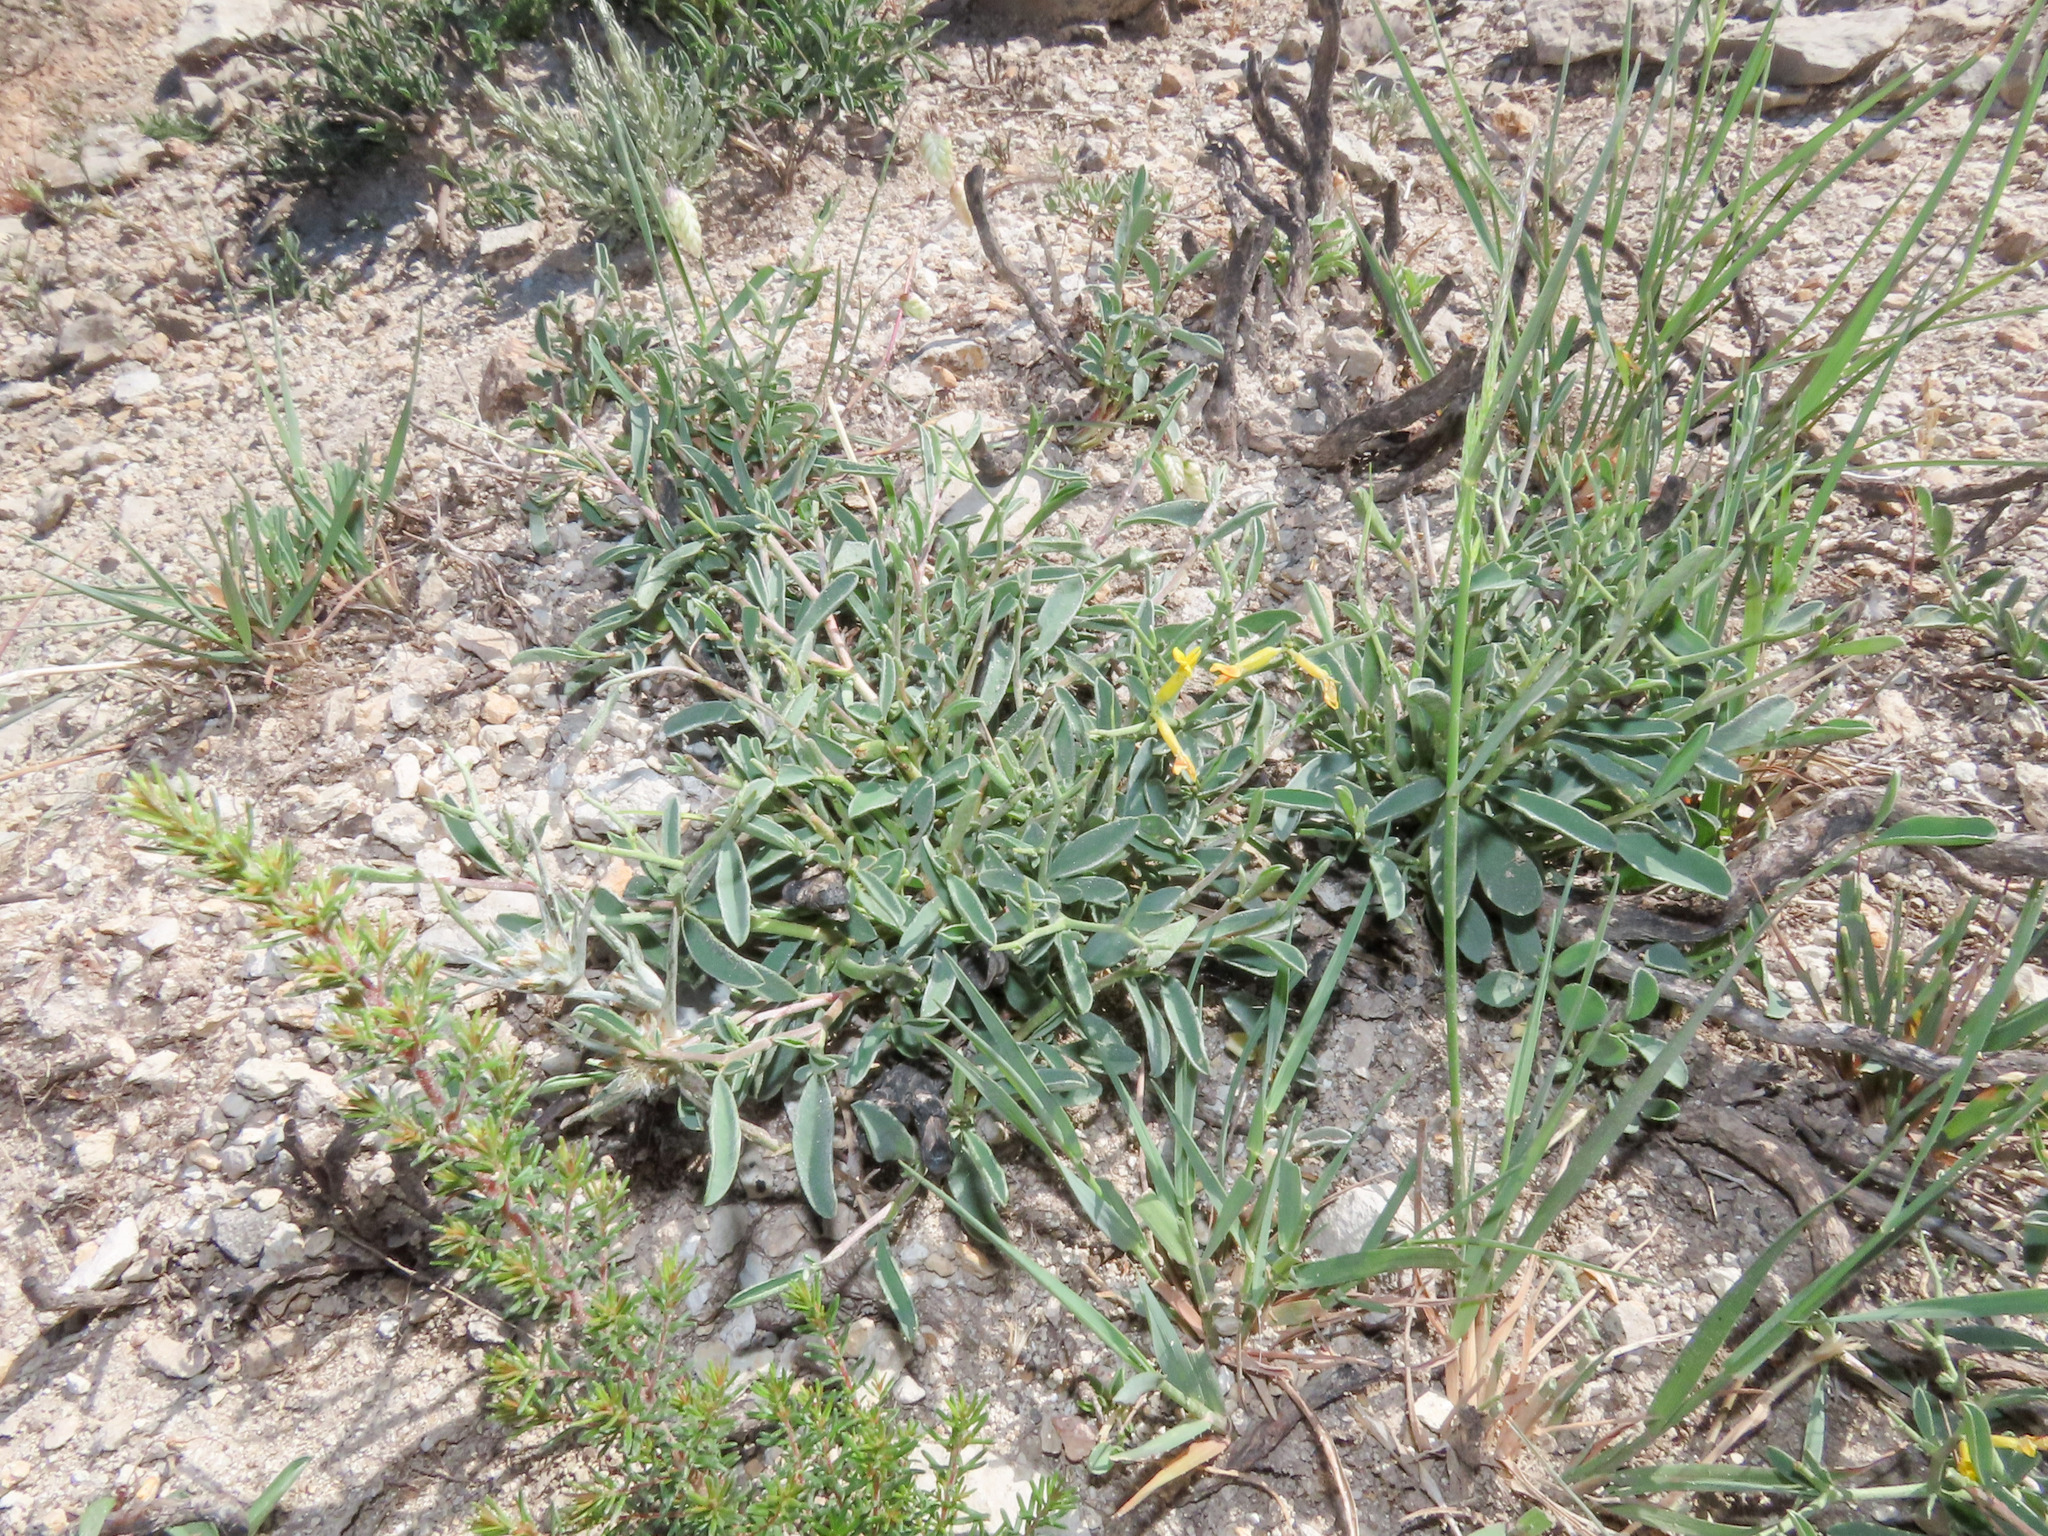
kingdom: Plantae
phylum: Tracheophyta
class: Magnoliopsida
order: Fabales
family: Fabaceae
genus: Anthyllis
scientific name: Anthyllis hermanniae
